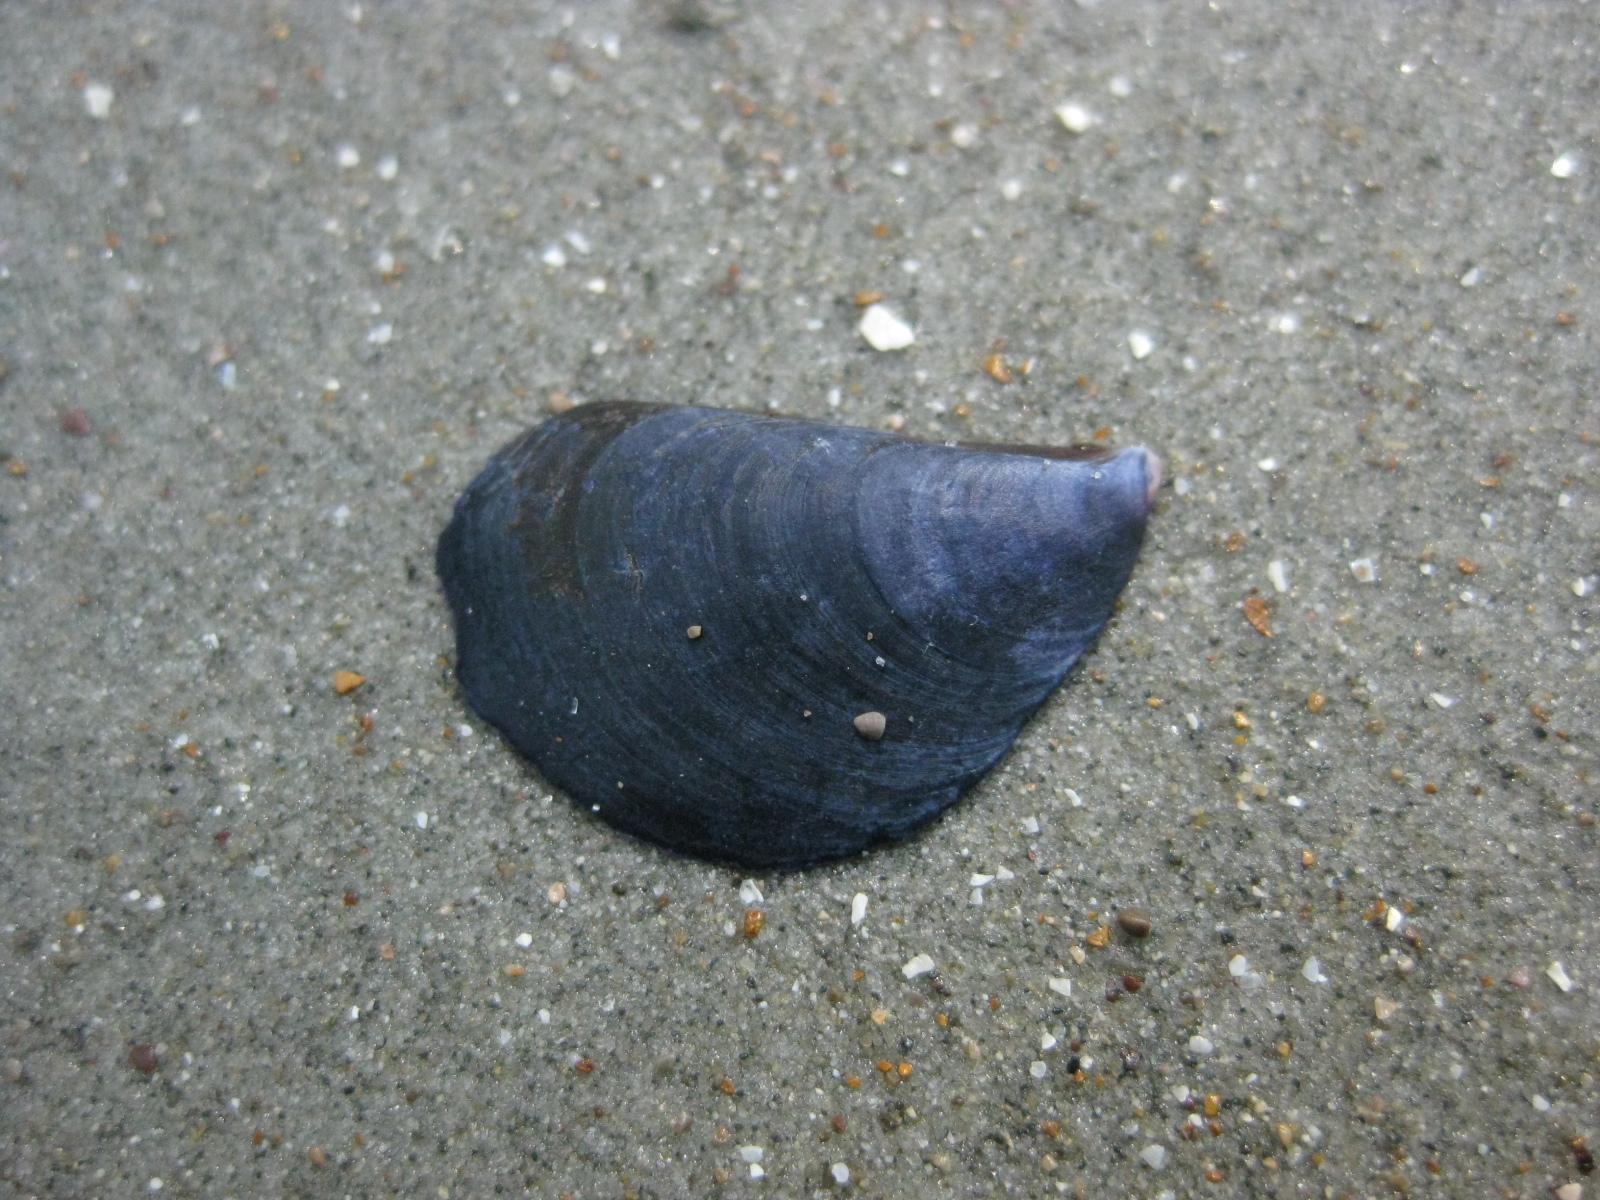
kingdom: Animalia
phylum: Mollusca
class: Bivalvia
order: Mytilida
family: Mytilidae
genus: Mytilus
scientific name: Mytilus planulatus
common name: Australian mussel
